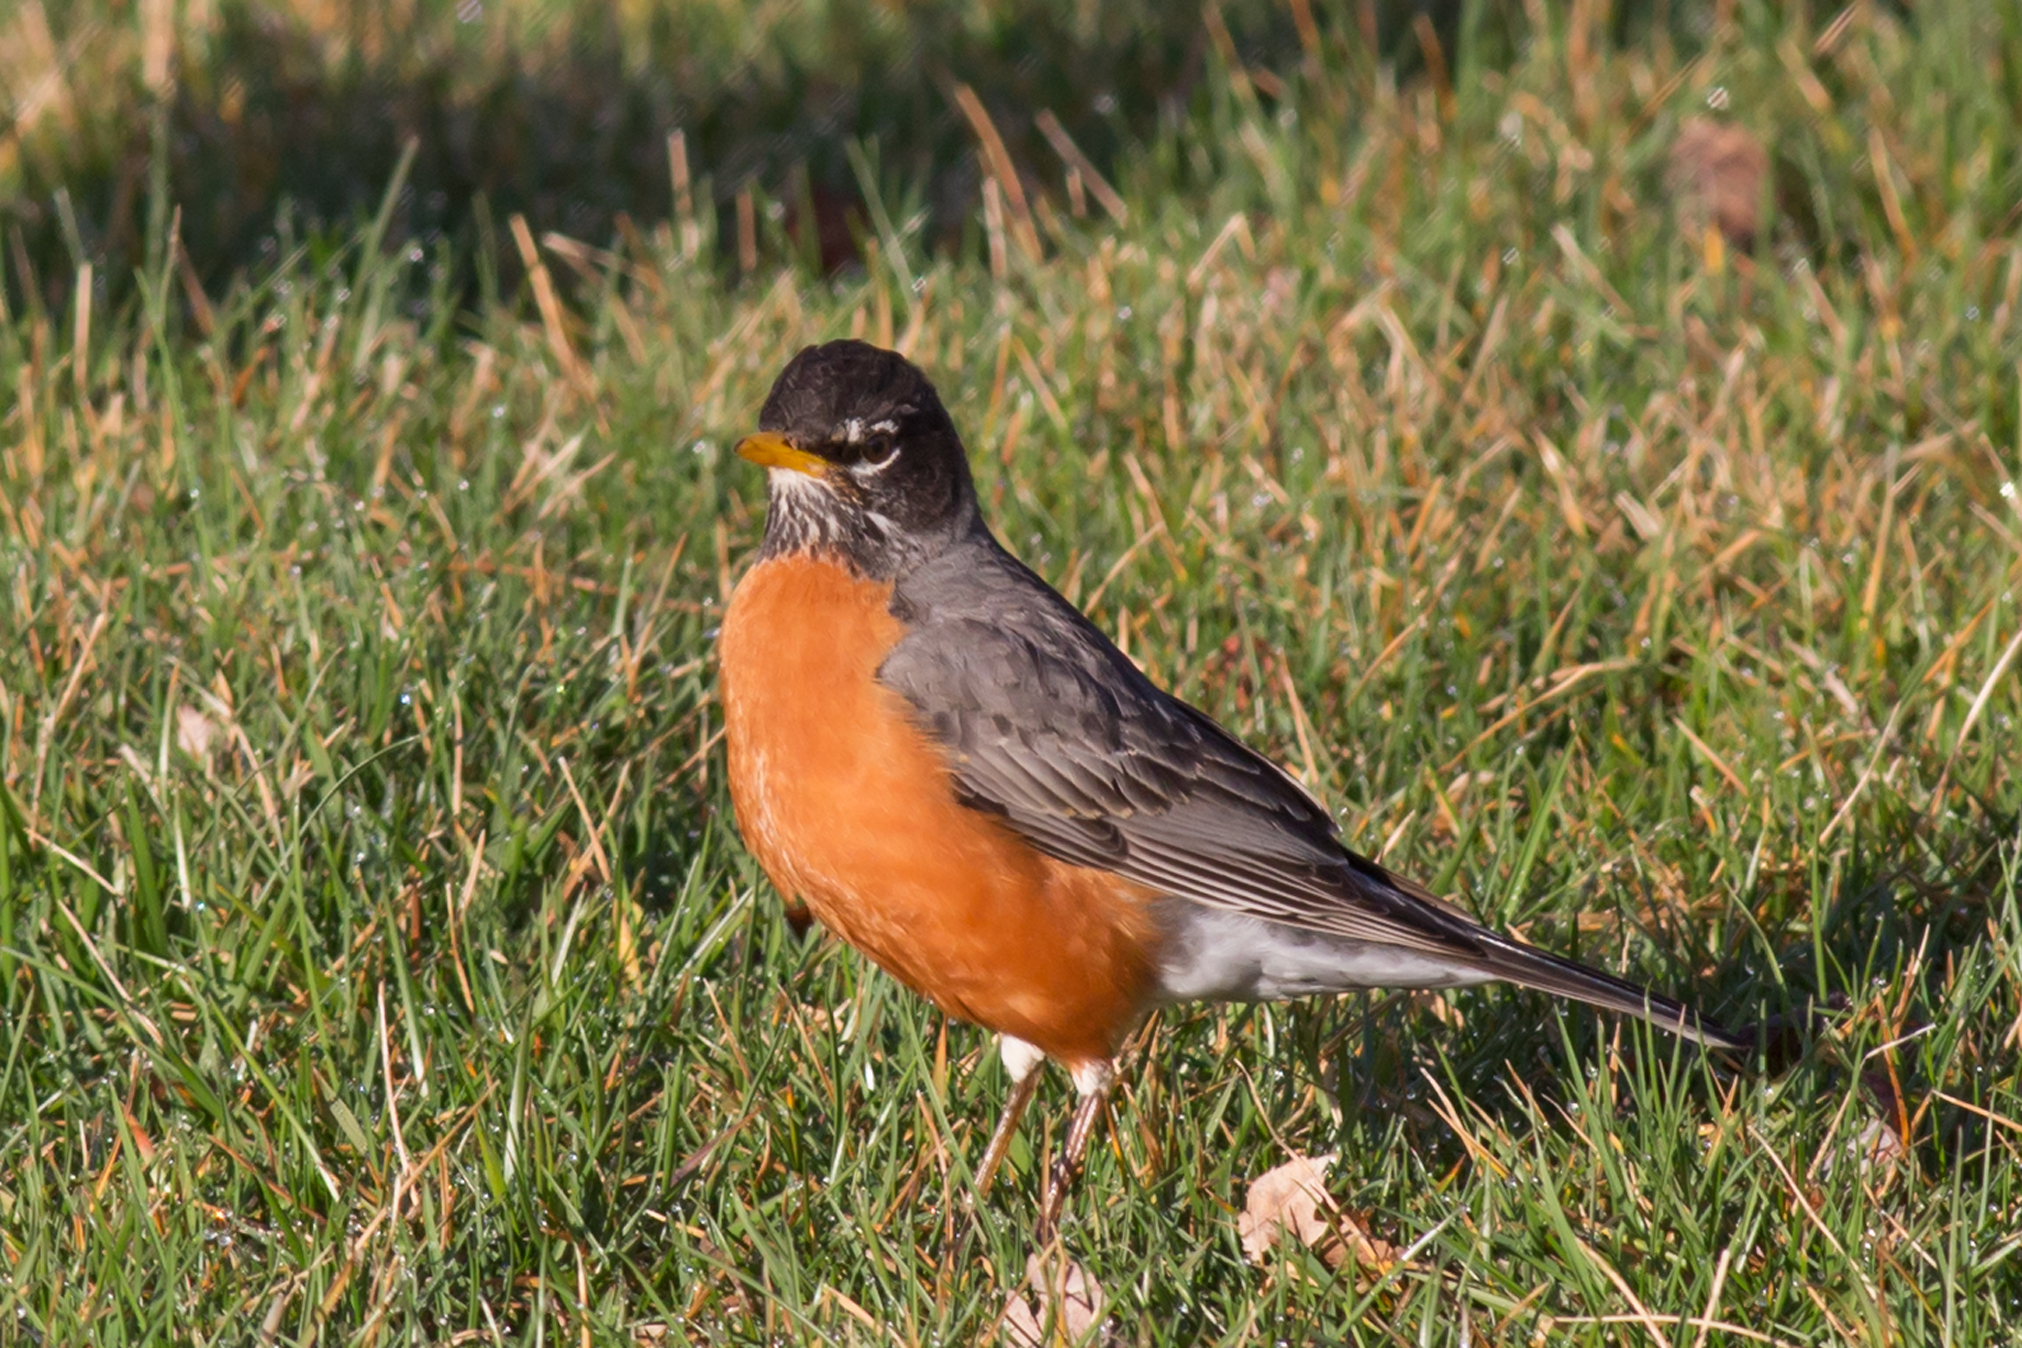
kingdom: Animalia
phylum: Chordata
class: Aves
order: Passeriformes
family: Turdidae
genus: Turdus
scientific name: Turdus migratorius
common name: American robin
